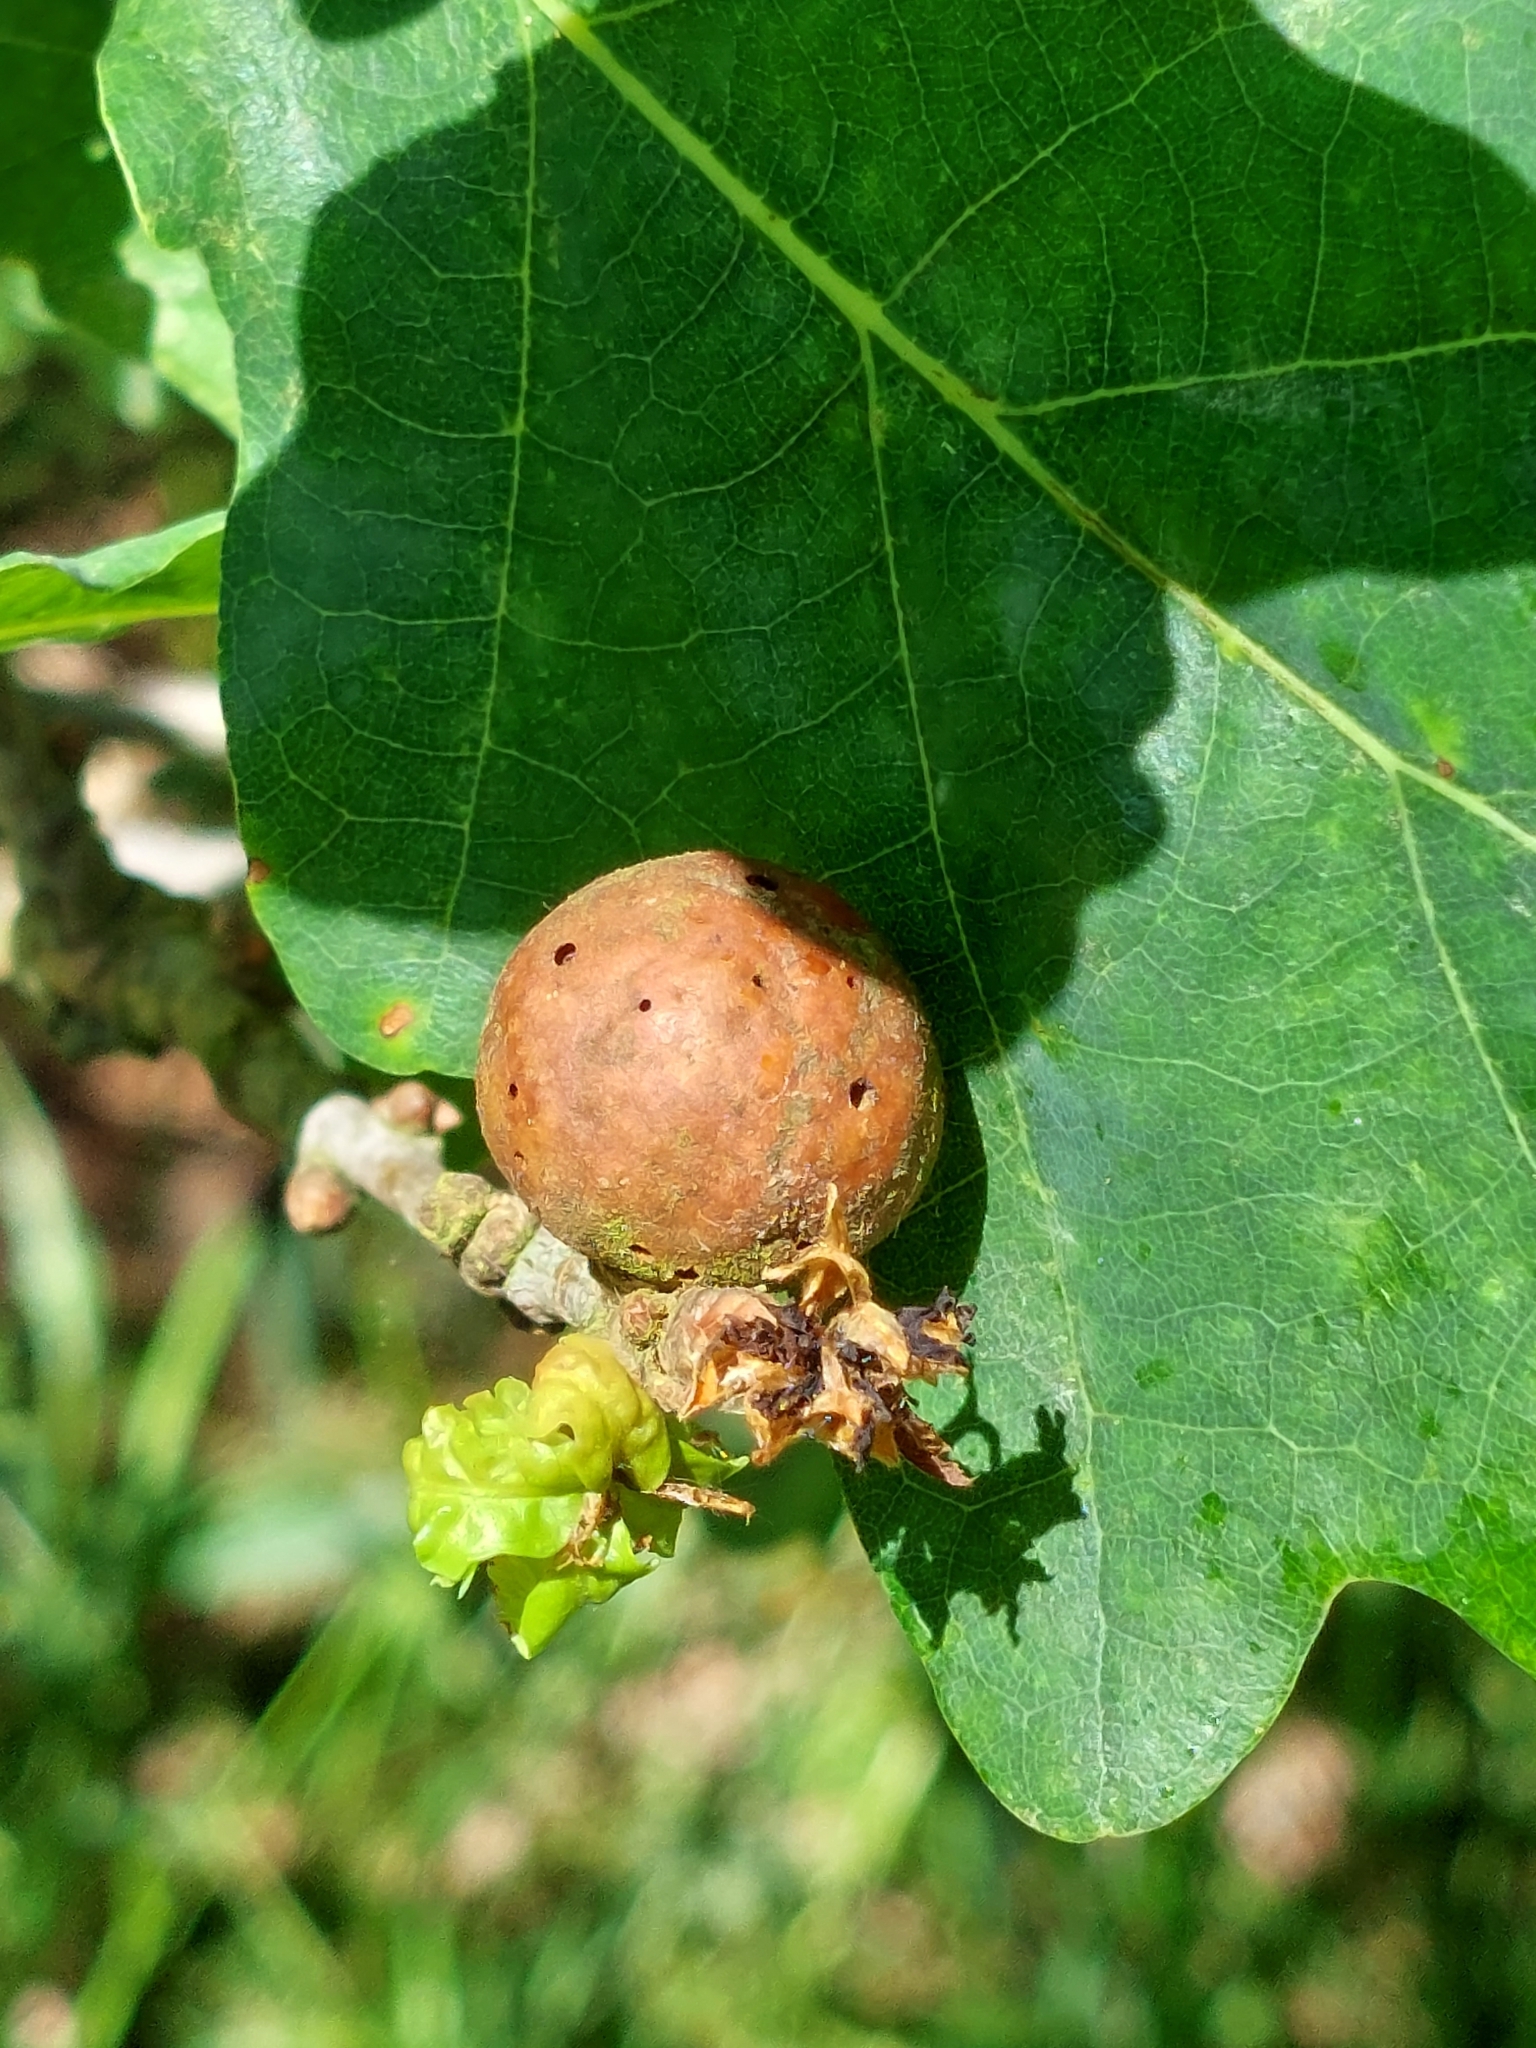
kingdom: Animalia
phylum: Arthropoda
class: Insecta
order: Hymenoptera
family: Cynipidae
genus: Andricus
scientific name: Andricus kollari
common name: Marble gall
